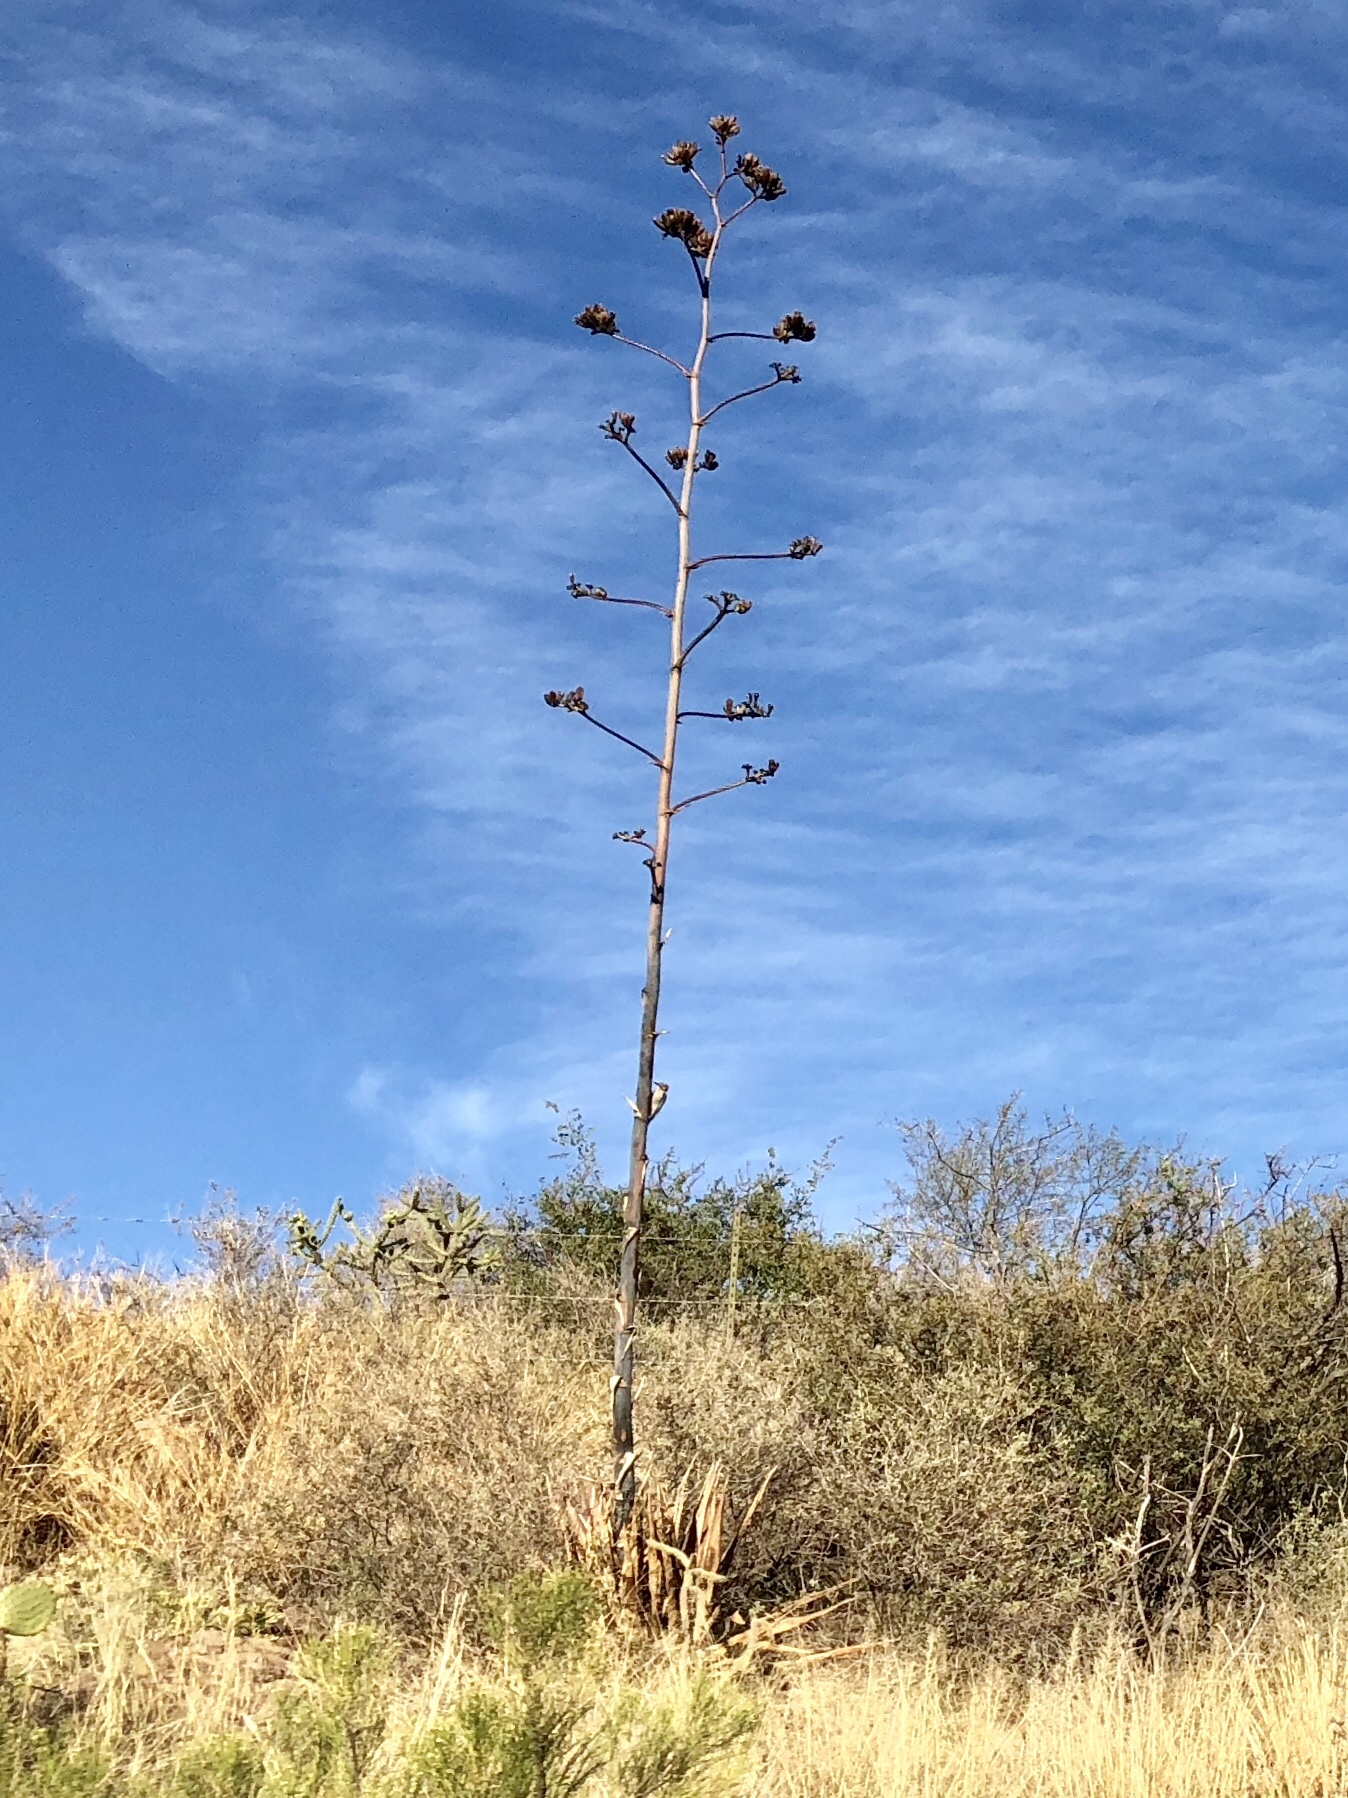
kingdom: Plantae
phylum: Tracheophyta
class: Liliopsida
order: Asparagales
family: Asparagaceae
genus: Agave
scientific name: Agave palmeri
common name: Palmer agave
